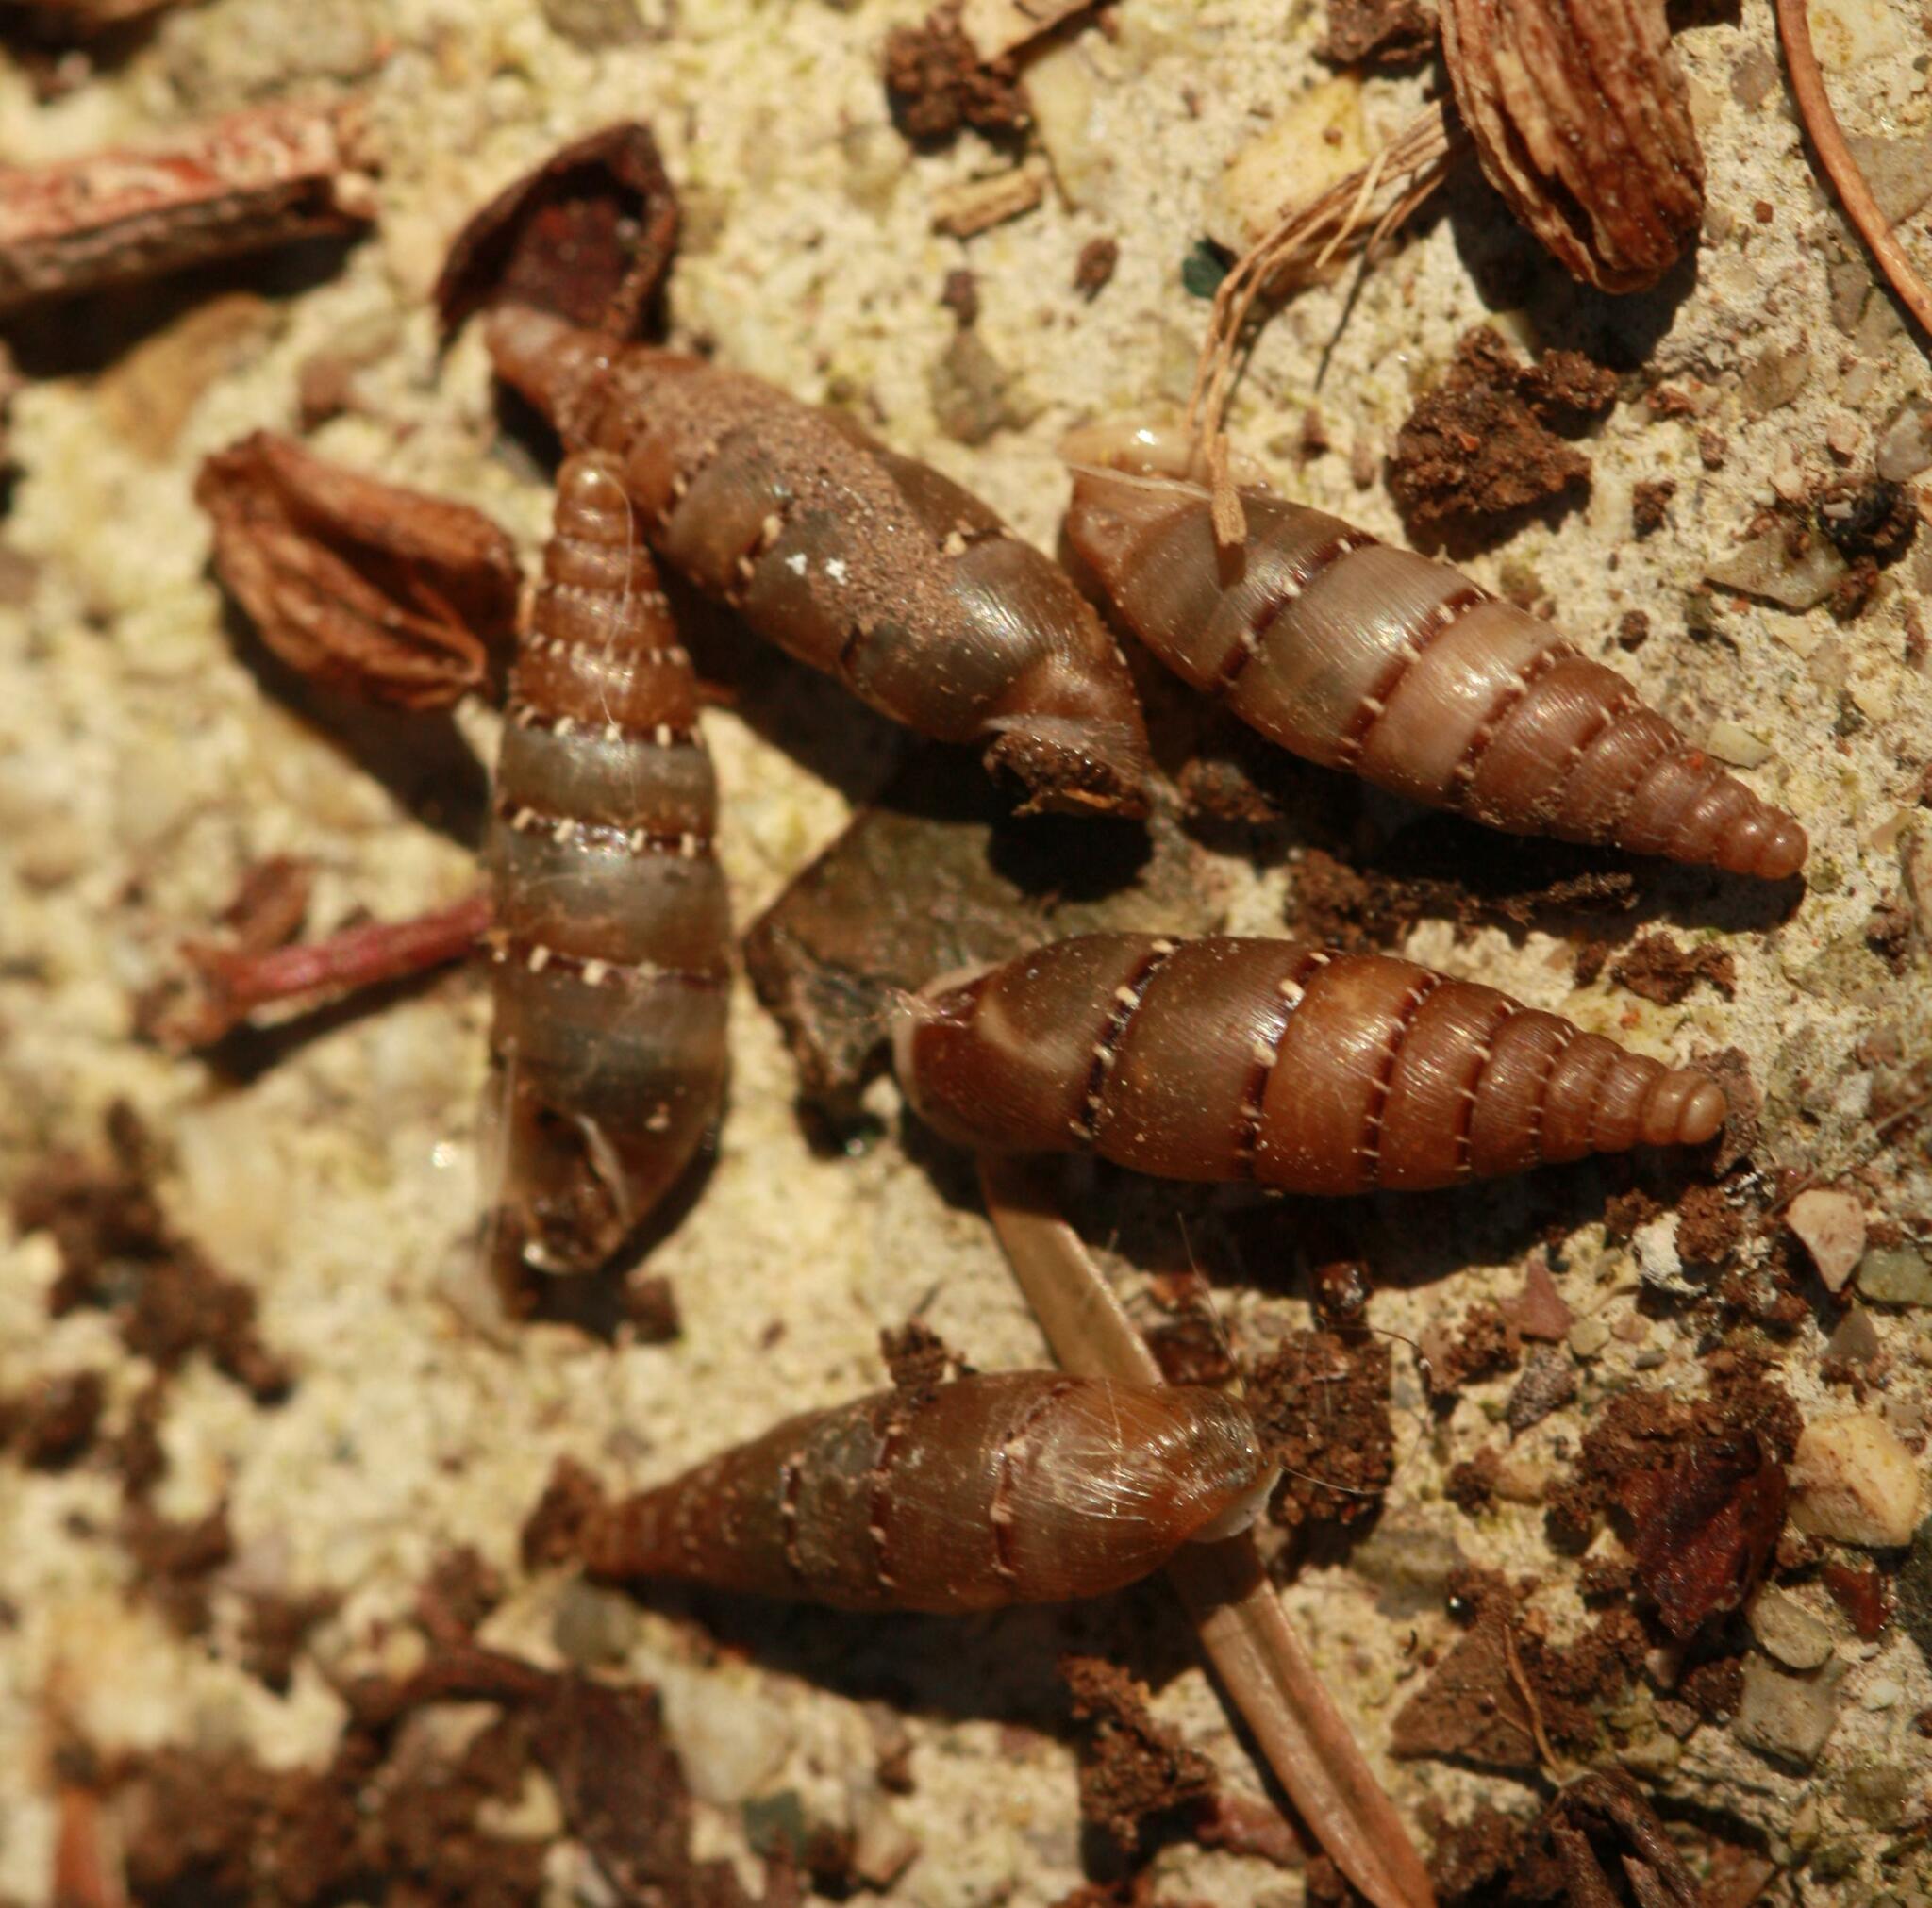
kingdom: Animalia
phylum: Mollusca
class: Gastropoda
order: Stylommatophora
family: Clausiliidae
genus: Papillifera
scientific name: Papillifera papillaris
